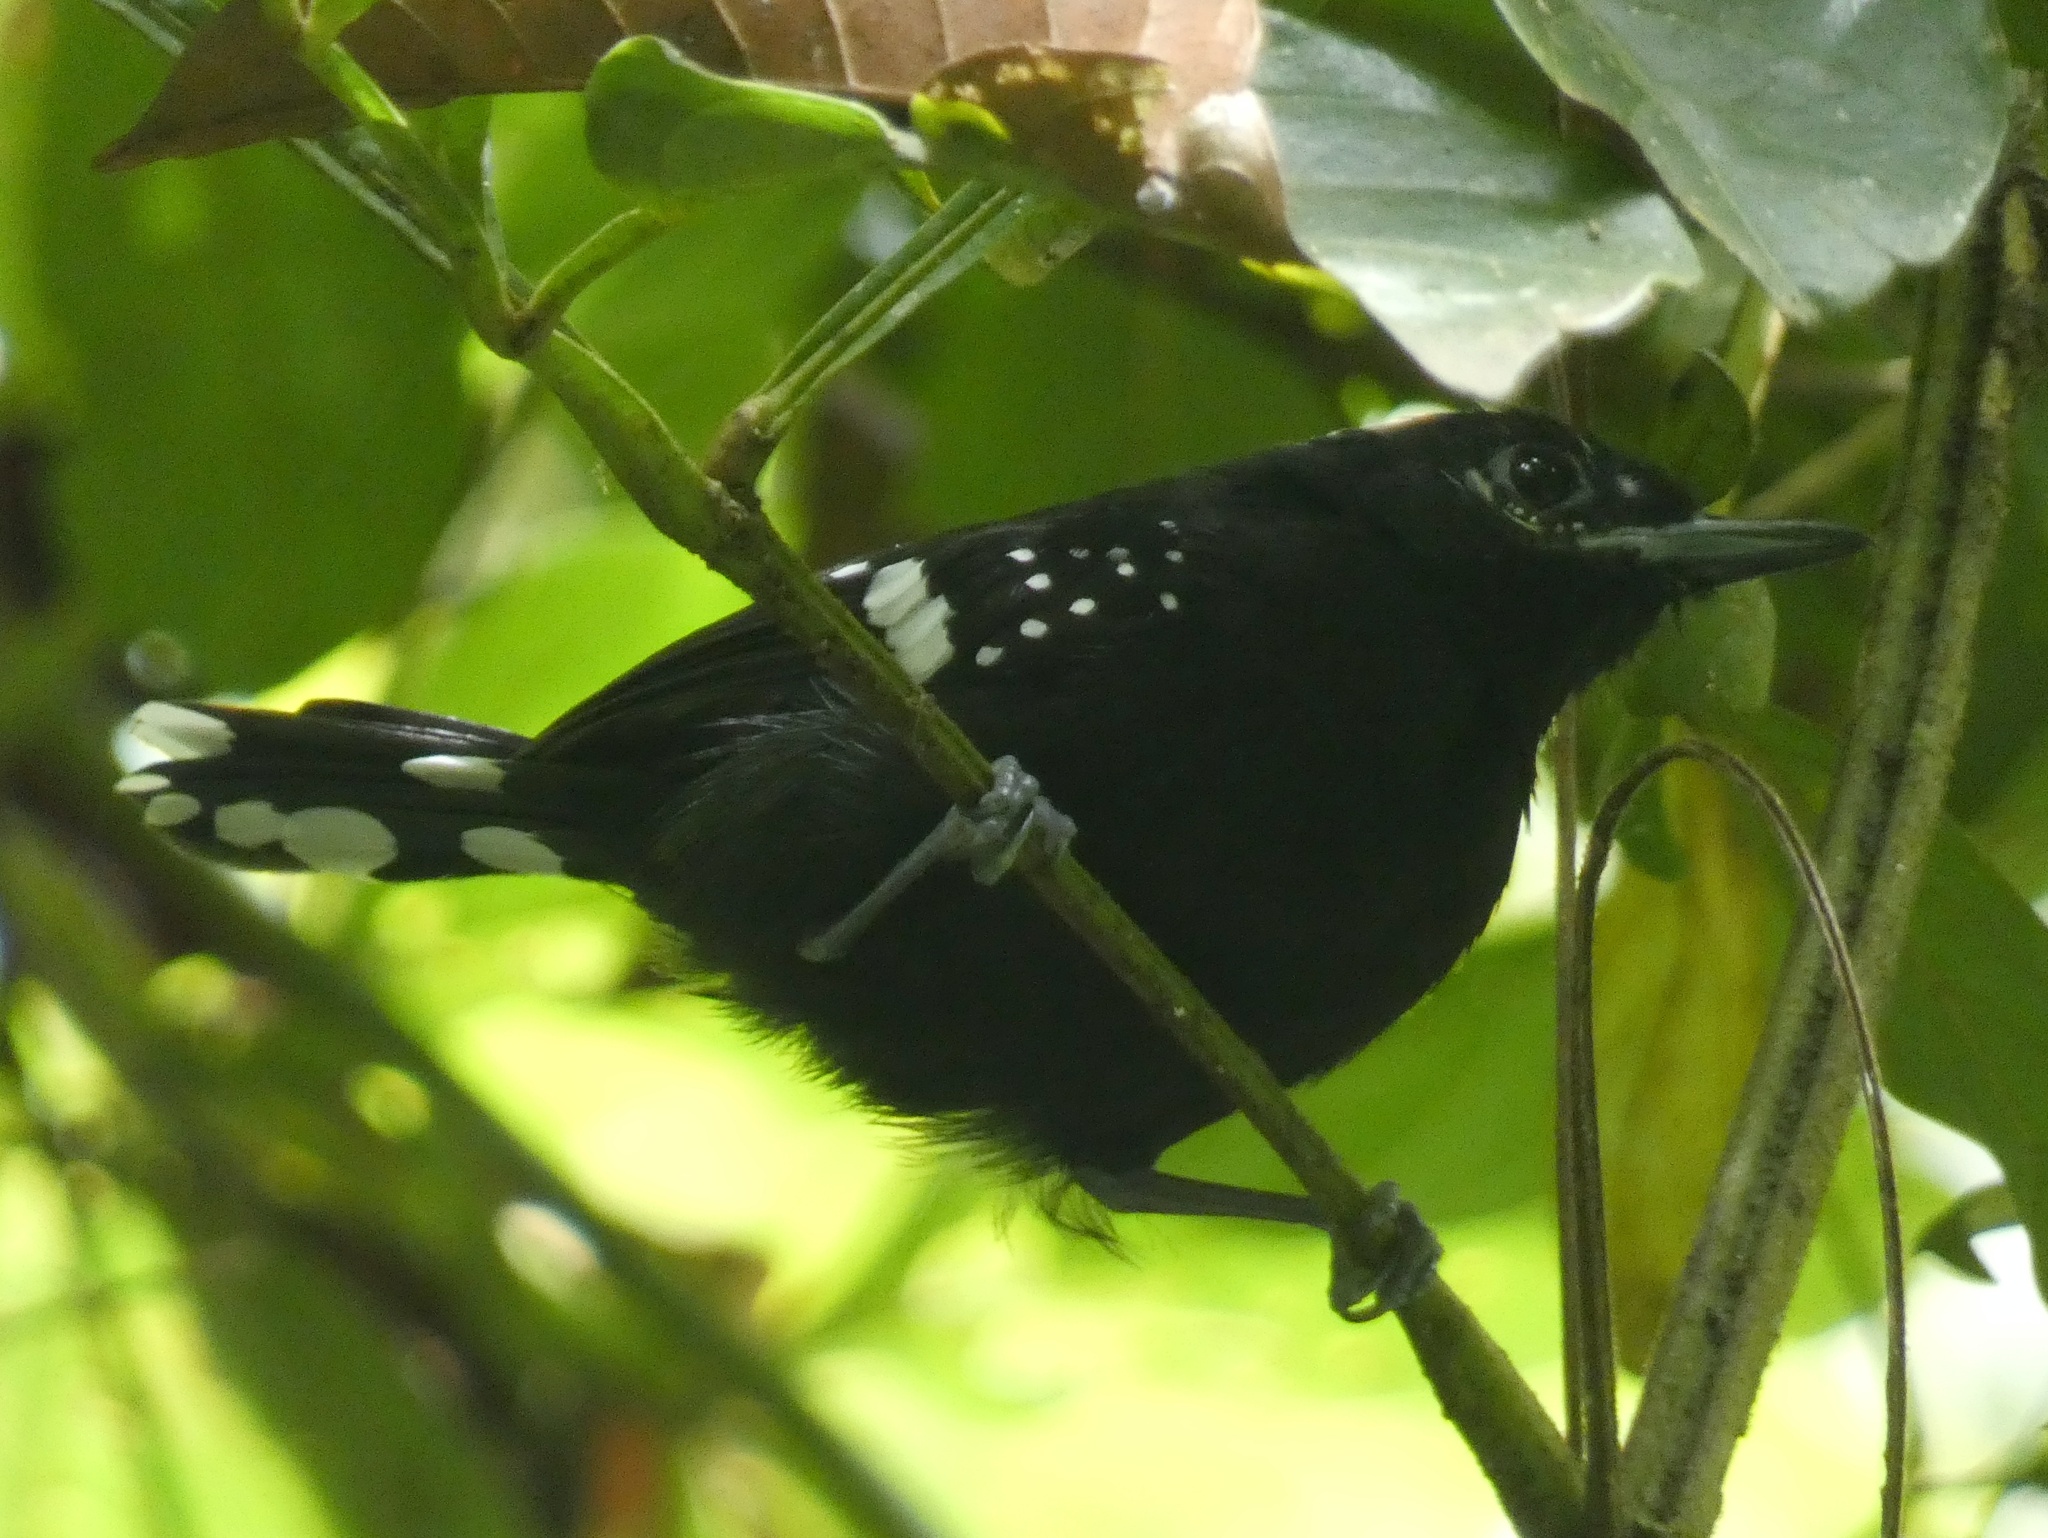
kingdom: Animalia
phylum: Chordata
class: Aves
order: Passeriformes
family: Thamnophilidae
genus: Microrhopias
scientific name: Microrhopias quixensis
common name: Dot-winged antwren
